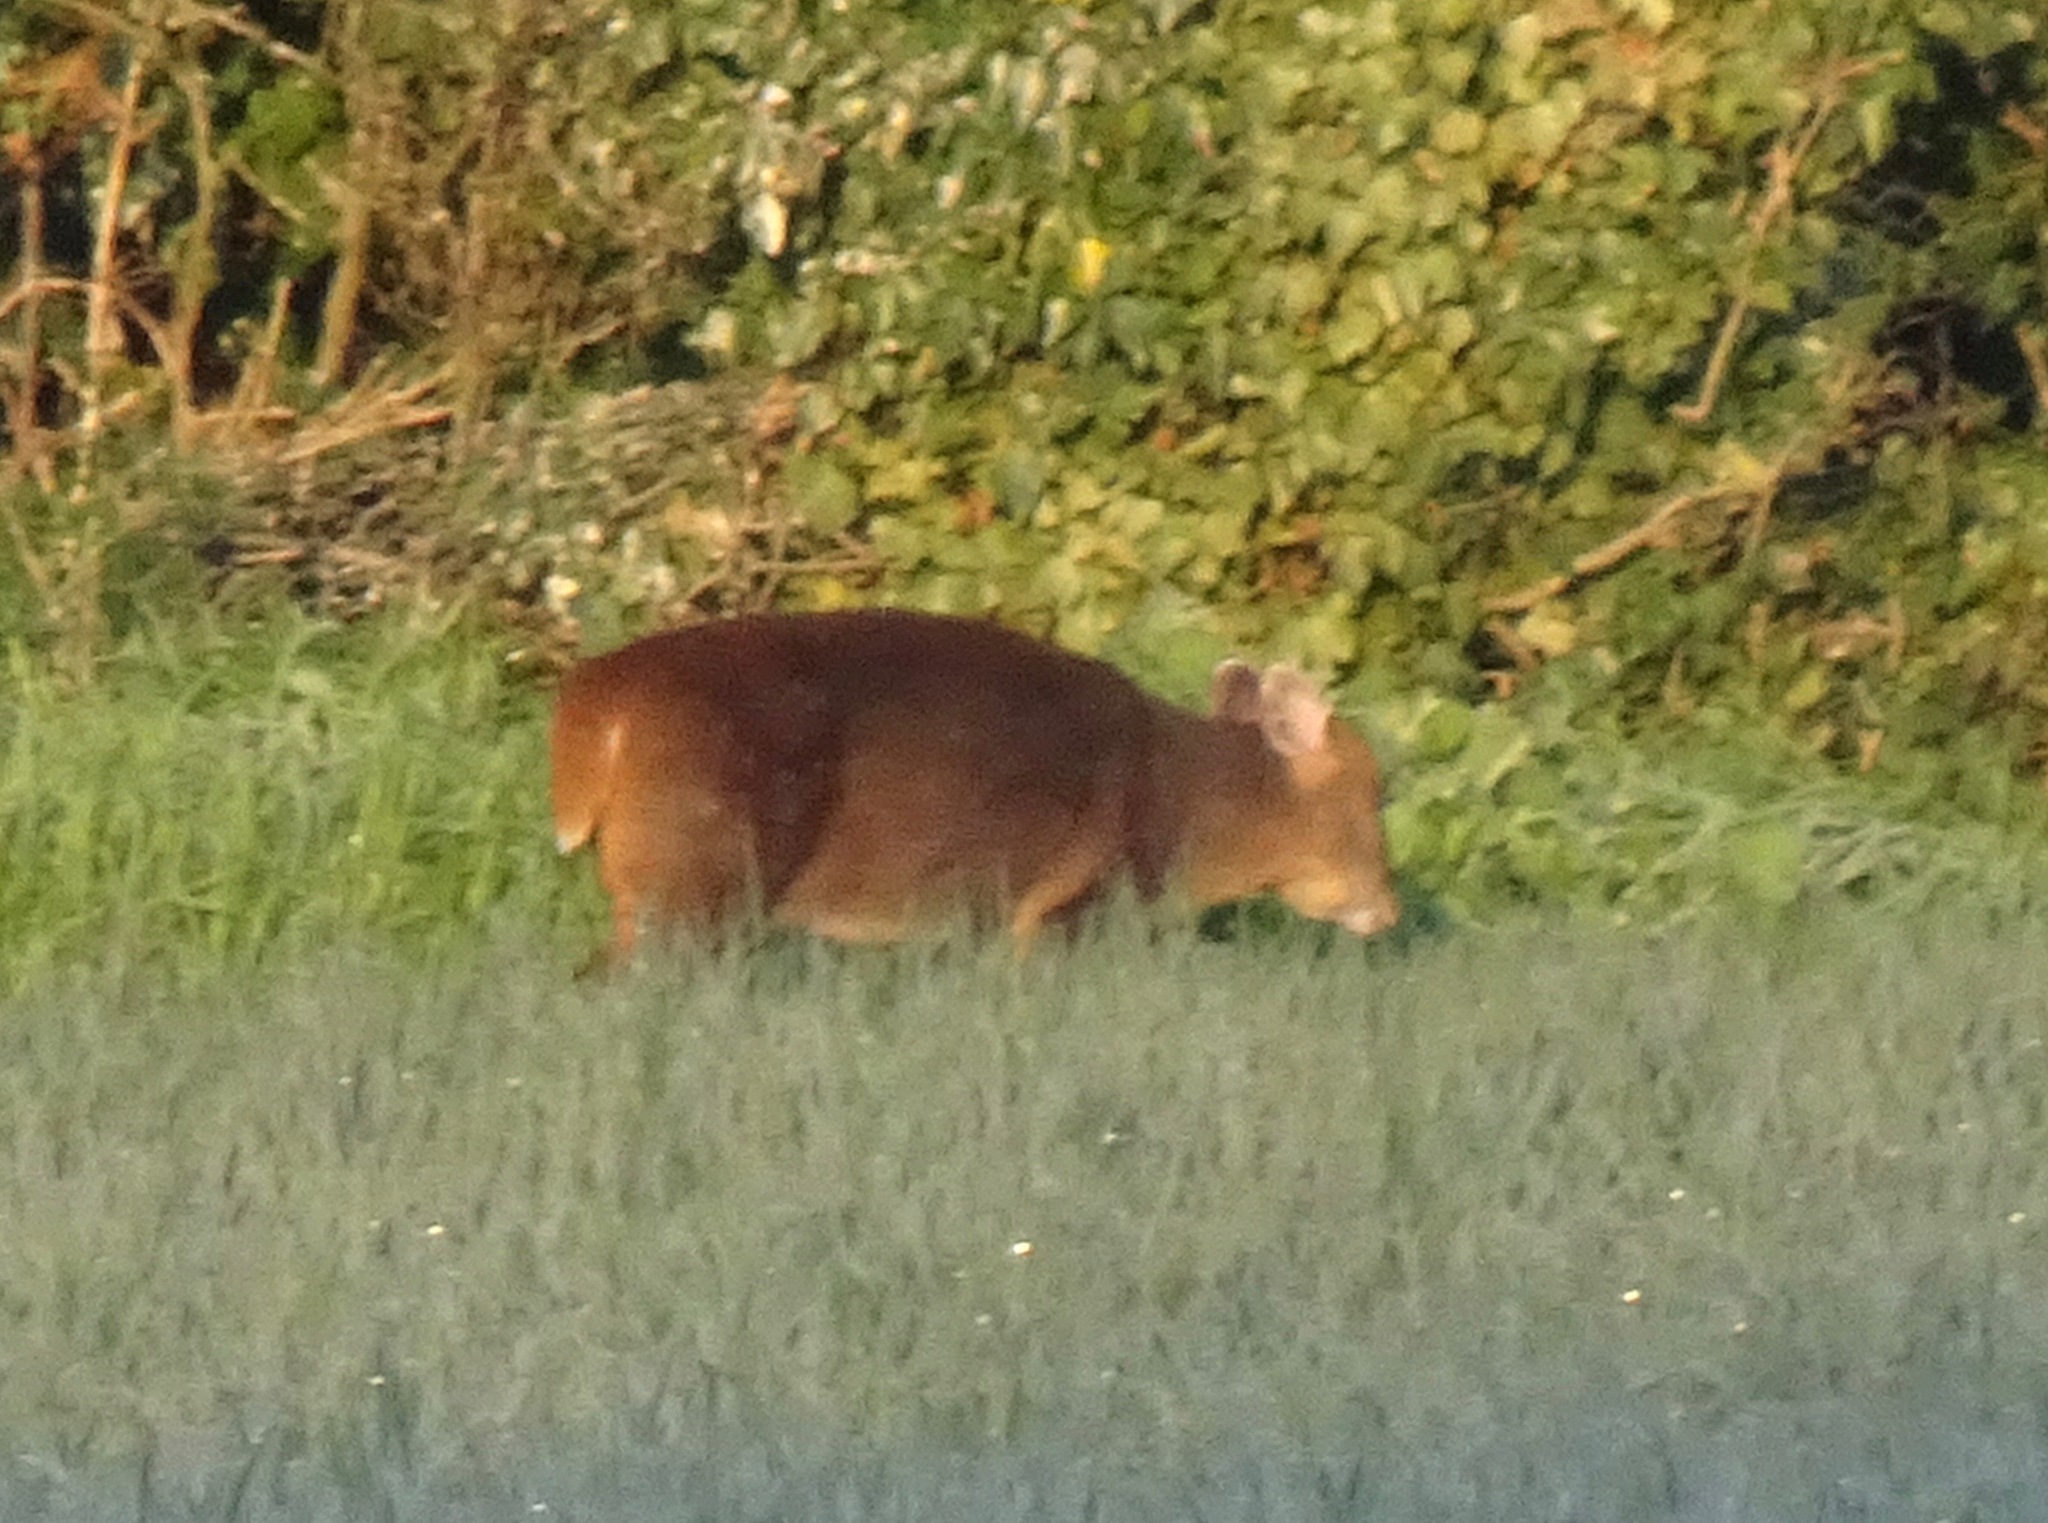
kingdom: Animalia
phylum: Chordata
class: Mammalia
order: Artiodactyla
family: Cervidae
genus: Muntiacus
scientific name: Muntiacus reevesi
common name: Reeves' muntjac
